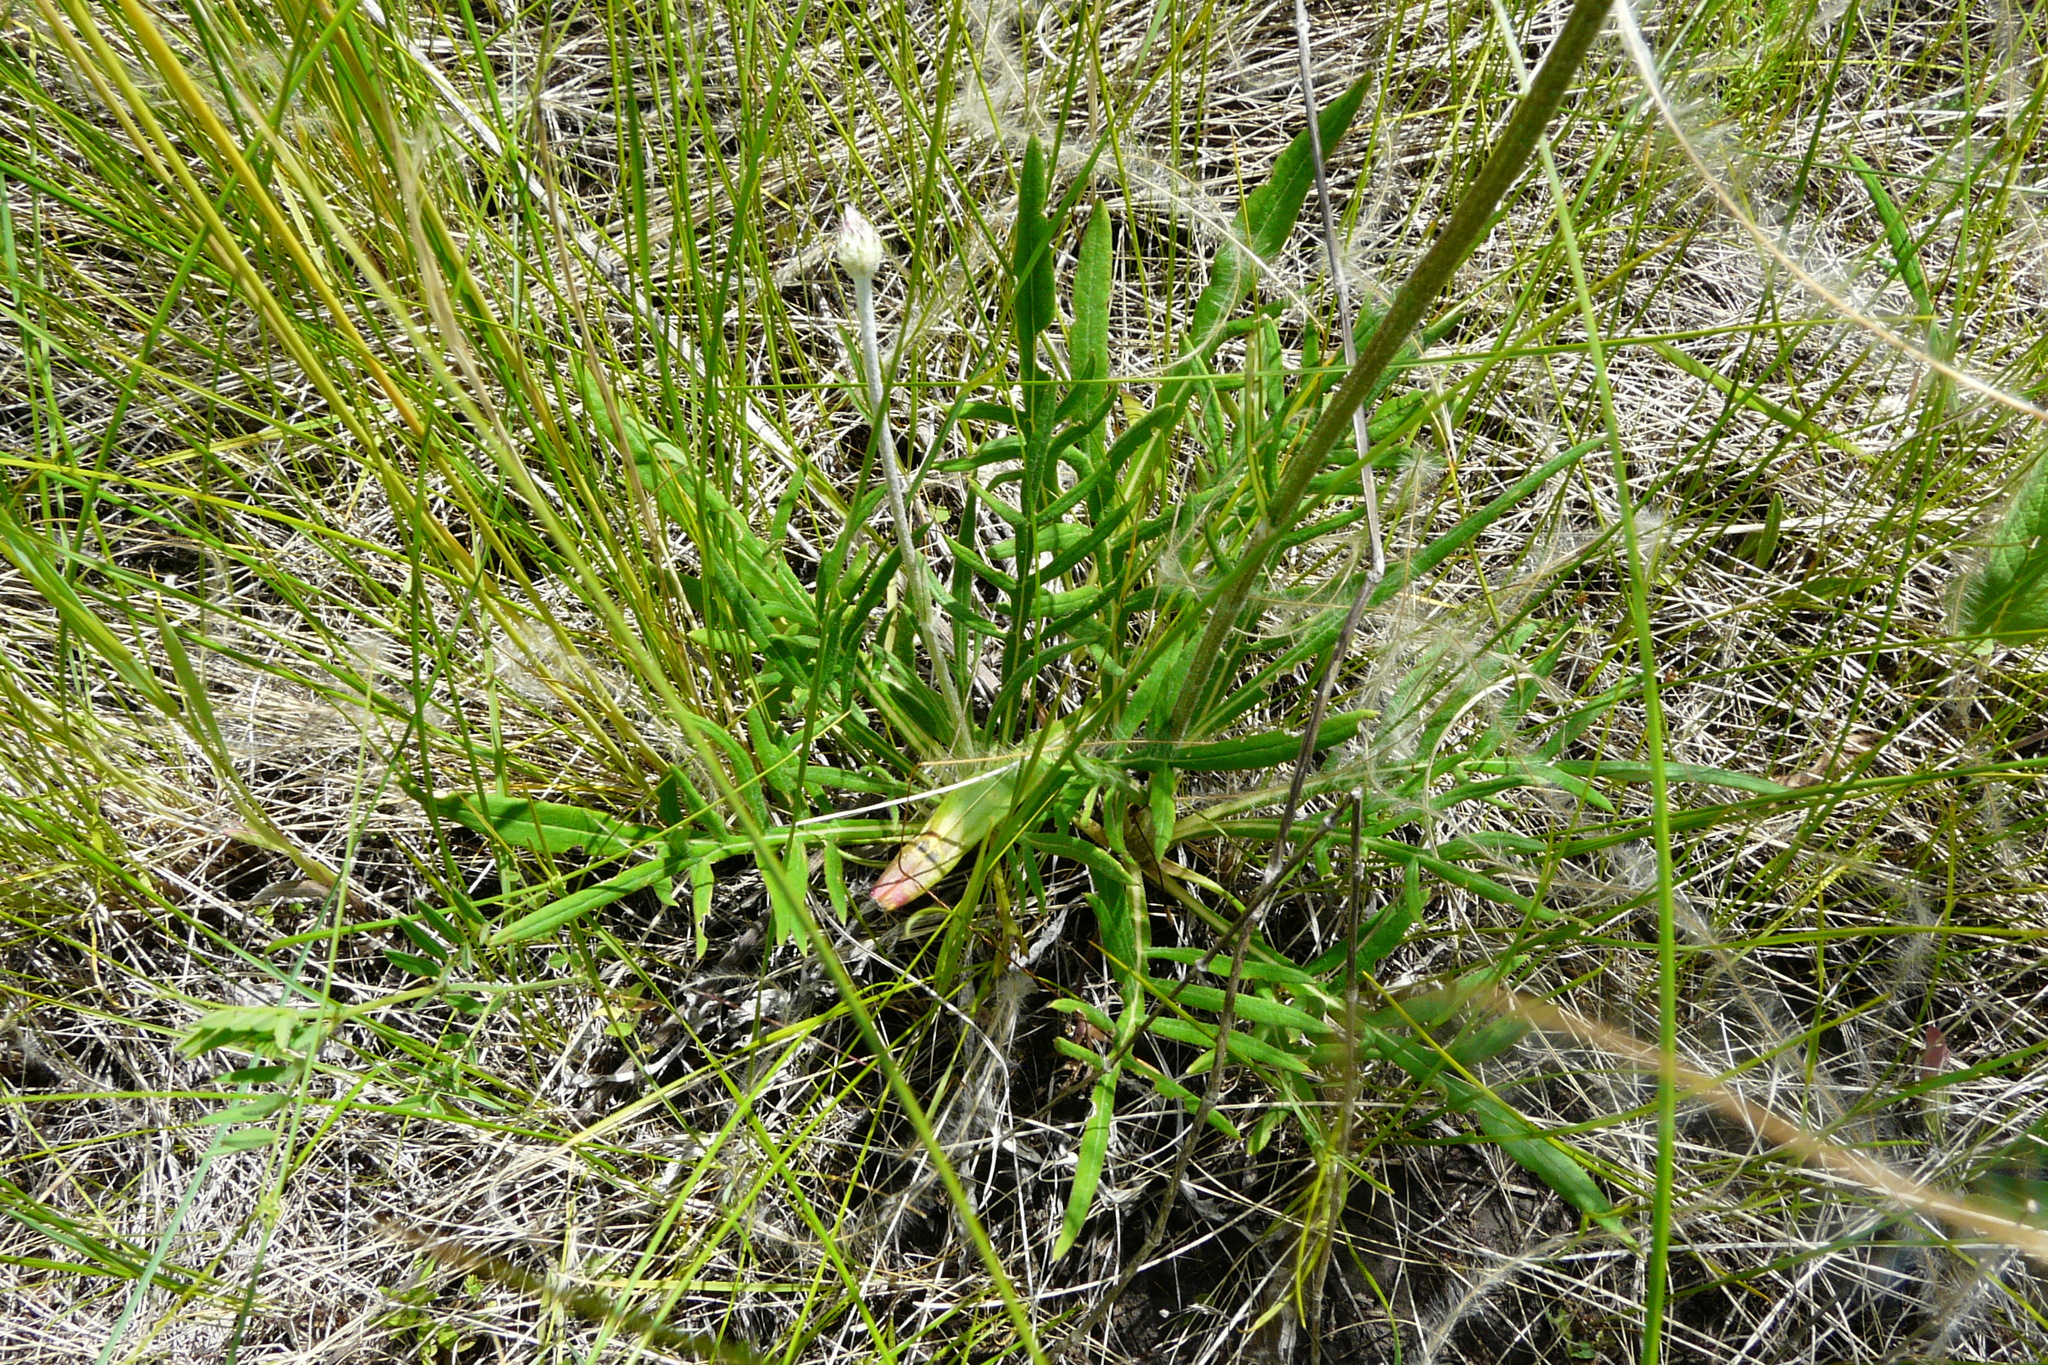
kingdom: Plantae
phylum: Tracheophyta
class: Magnoliopsida
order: Asterales
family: Asteraceae
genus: Jurinea
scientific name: Jurinea arachnoidea
